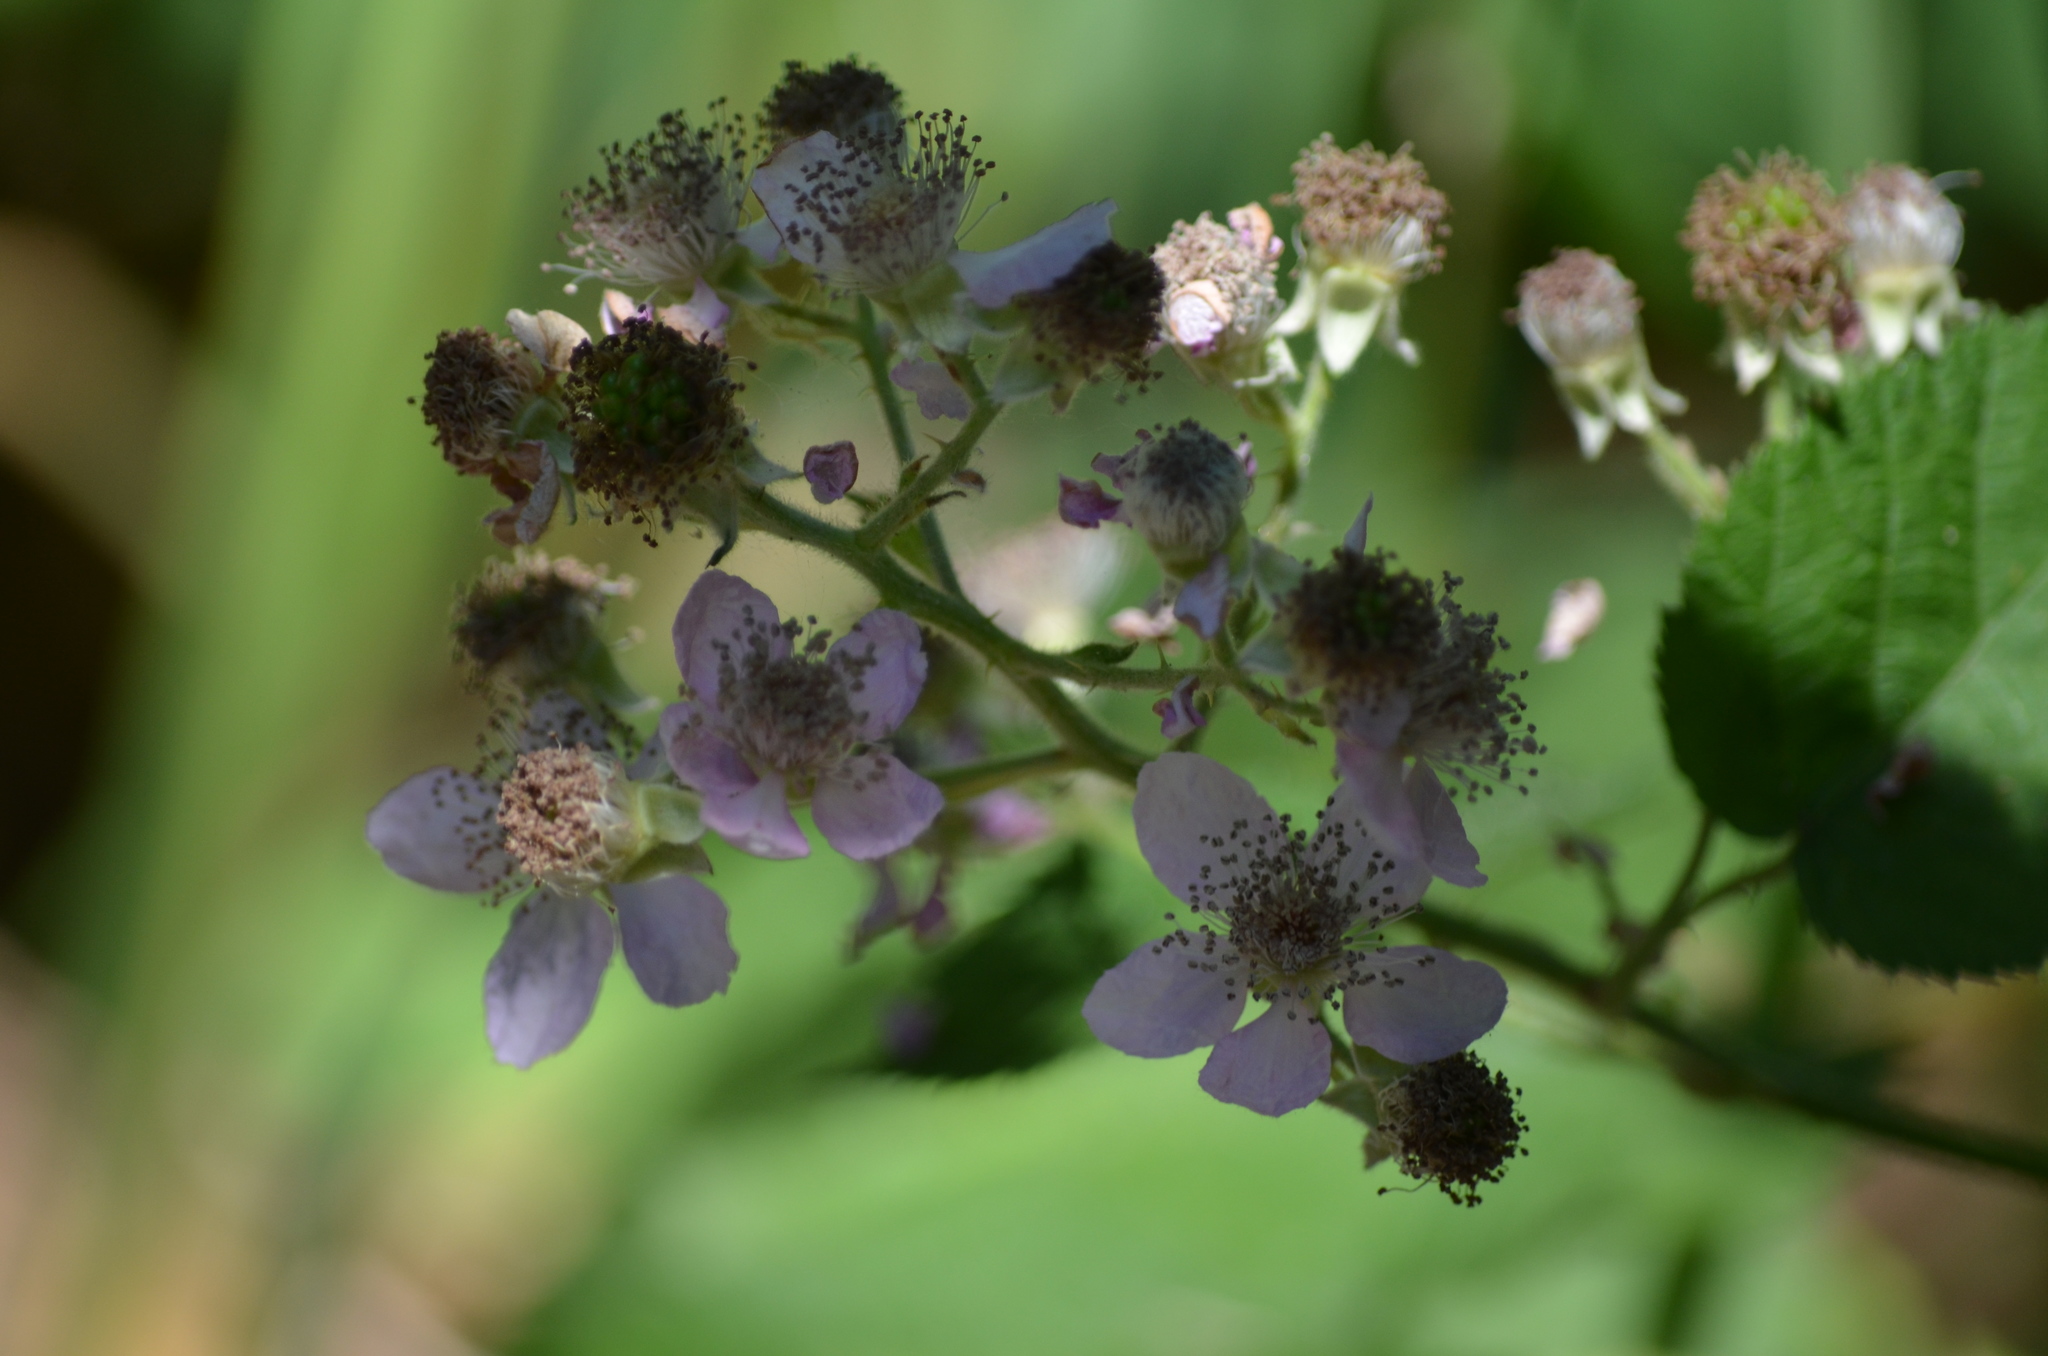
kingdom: Plantae
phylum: Tracheophyta
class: Magnoliopsida
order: Rosales
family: Rosaceae
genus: Rubus
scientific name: Rubus armeniacus
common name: Himalayan blackberry
